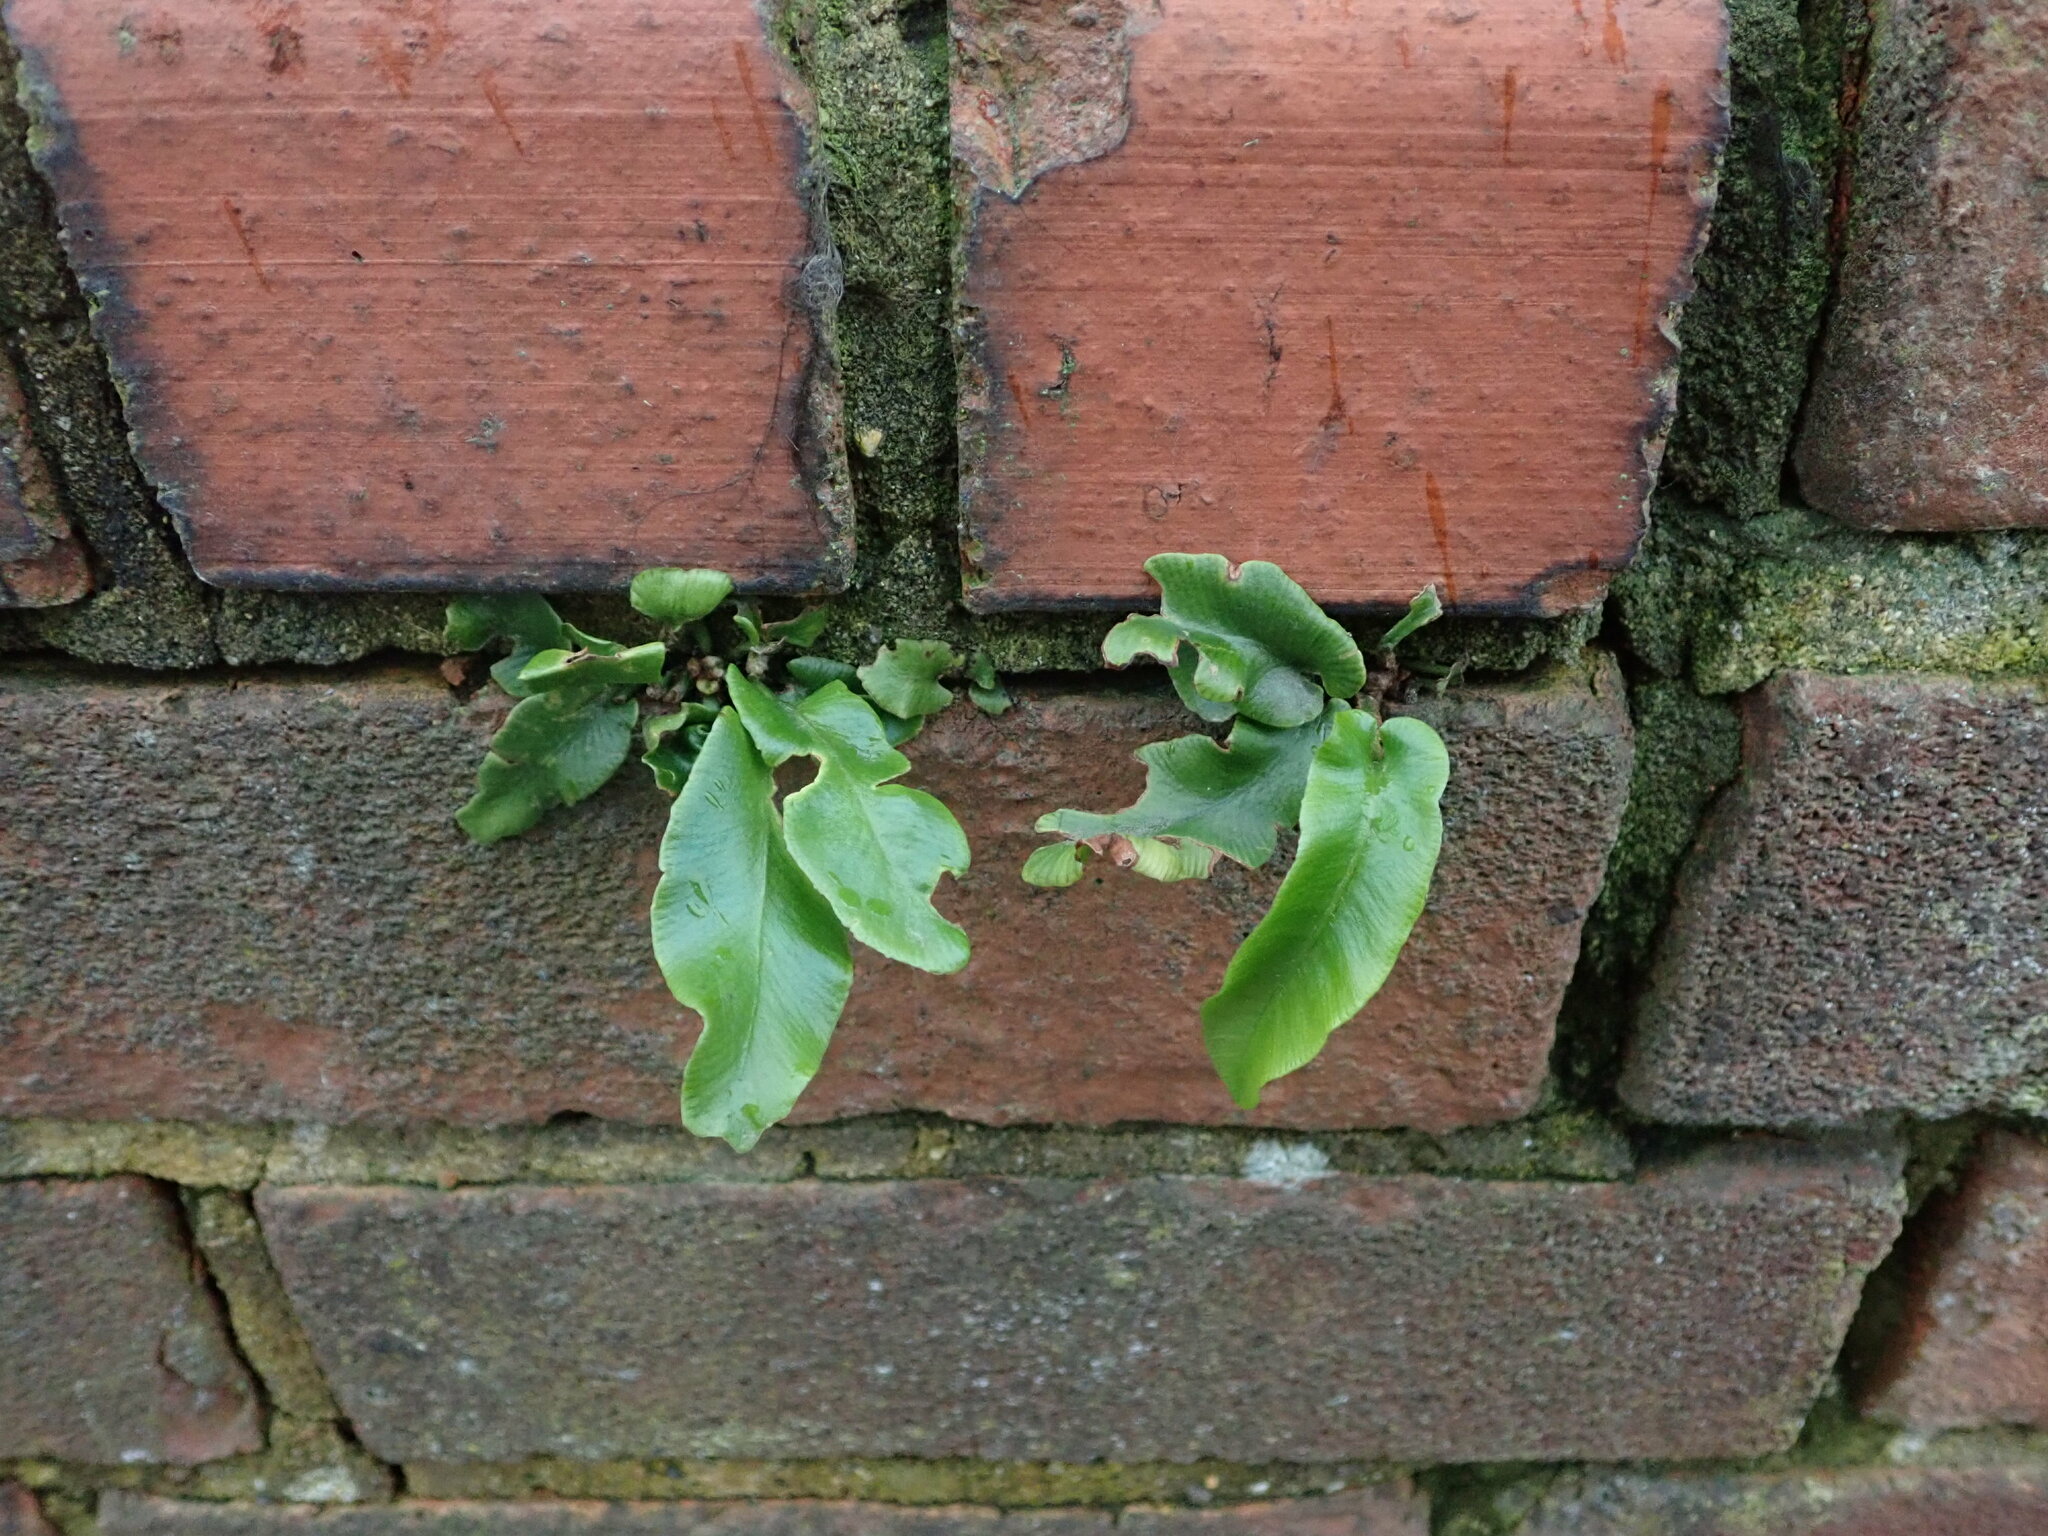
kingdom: Plantae
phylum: Tracheophyta
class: Polypodiopsida
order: Polypodiales
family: Aspleniaceae
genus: Asplenium
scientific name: Asplenium scolopendrium
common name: Hart's-tongue fern
